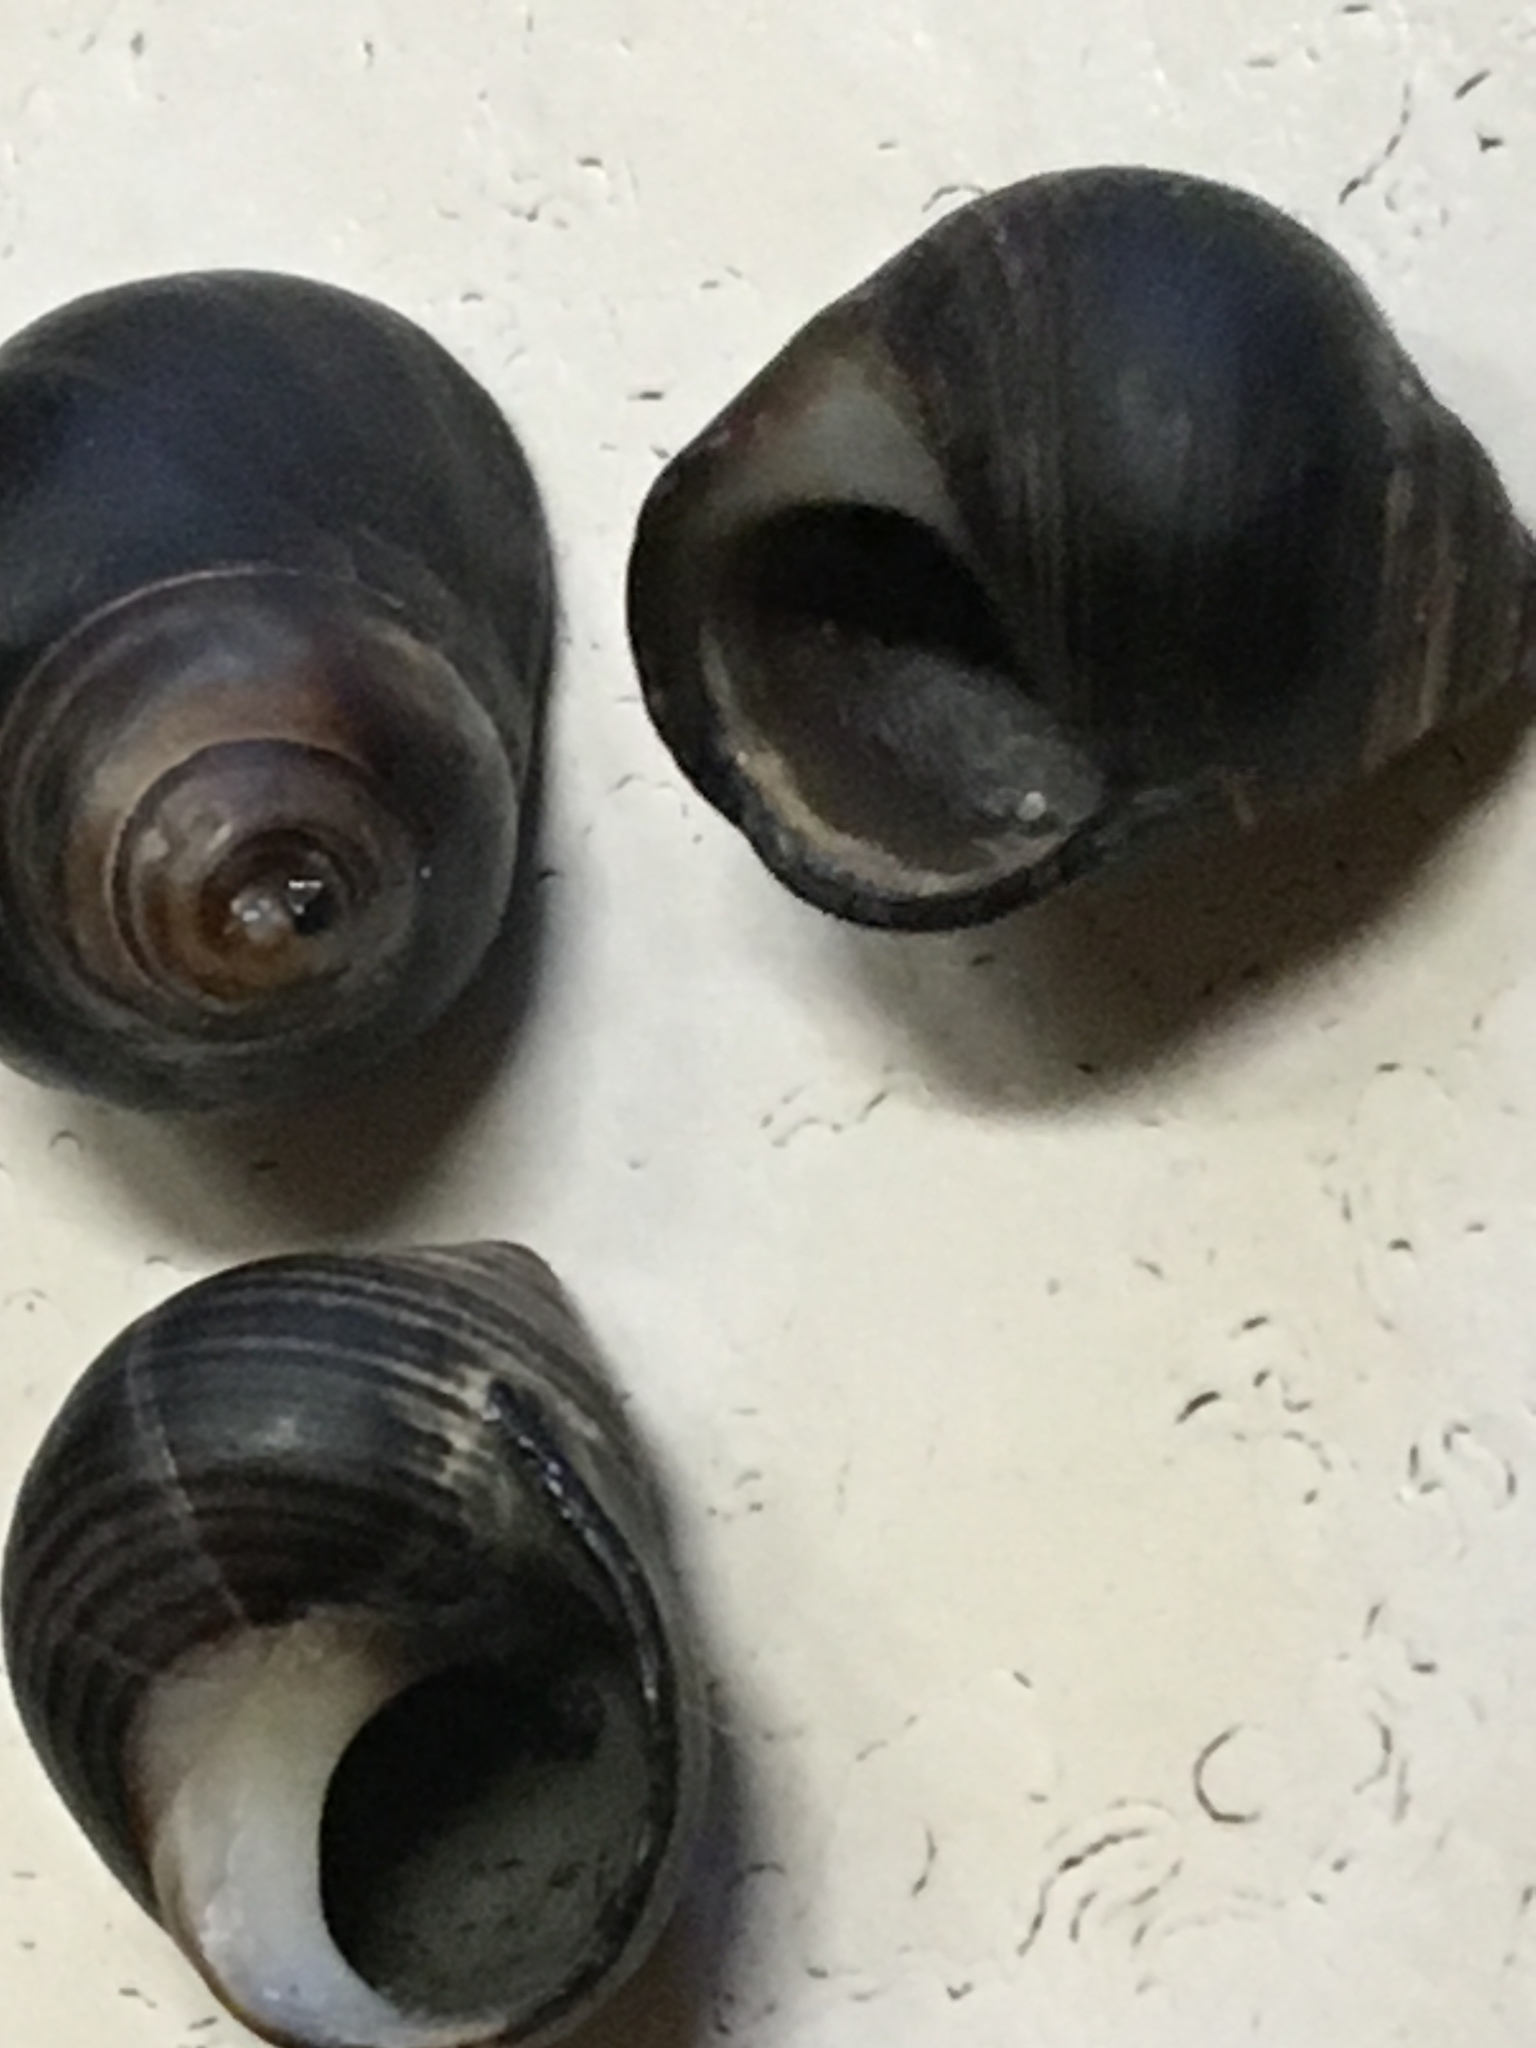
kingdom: Animalia
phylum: Mollusca
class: Gastropoda
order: Littorinimorpha
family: Littorinidae
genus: Littorina
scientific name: Littorina littorea
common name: Common periwinkle
